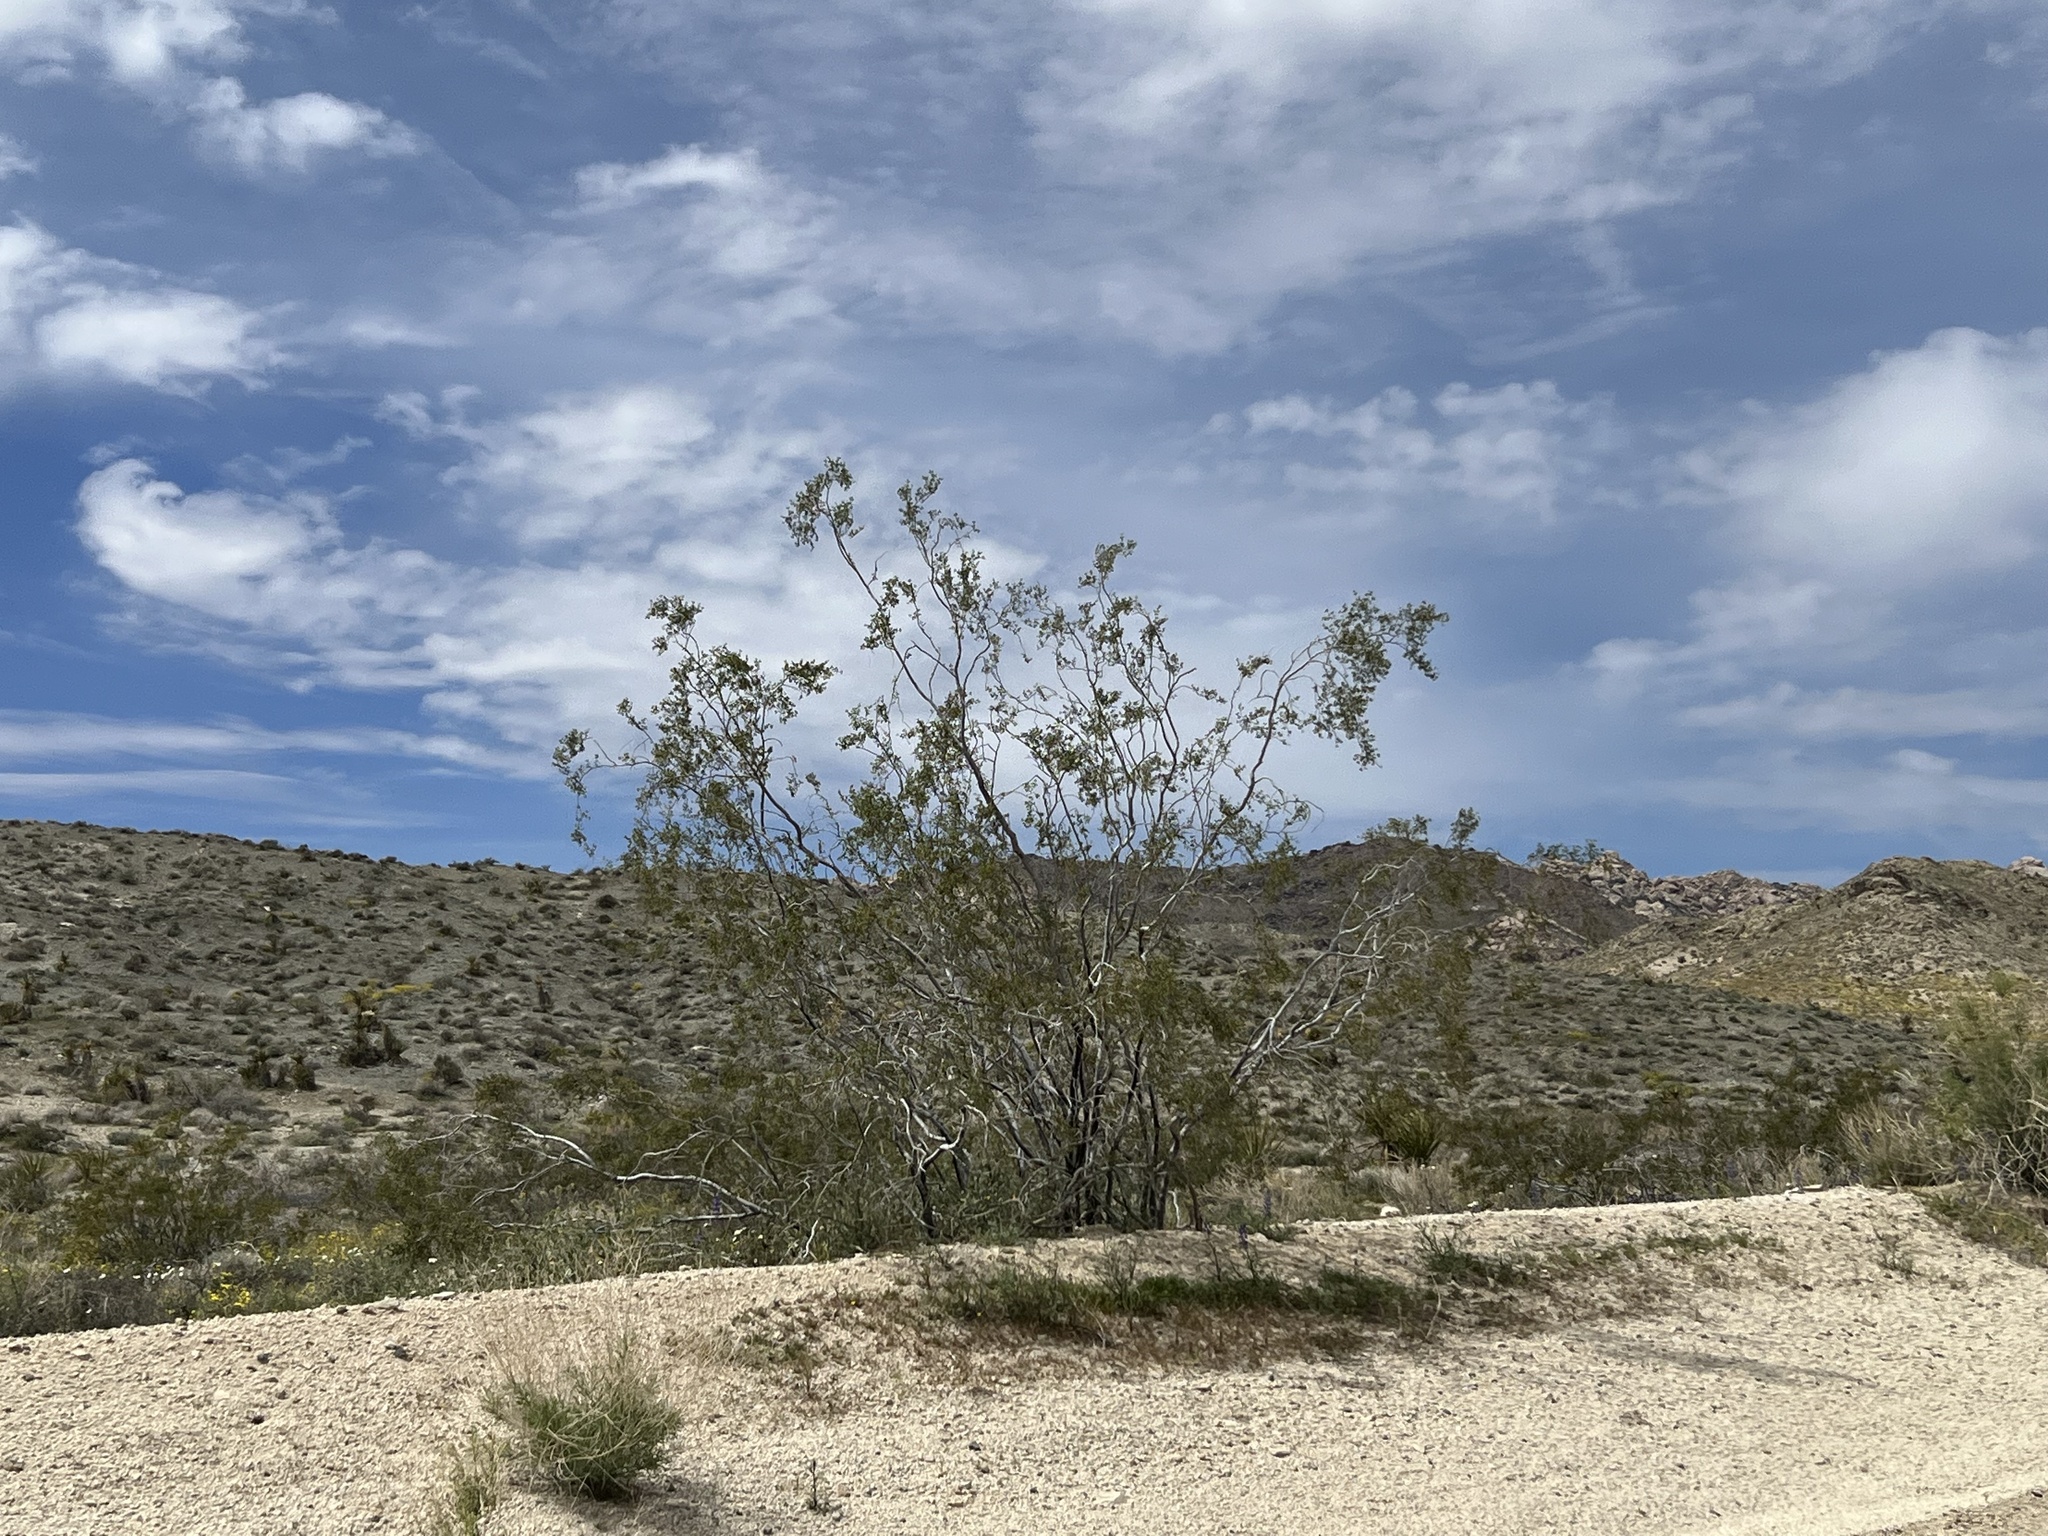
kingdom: Plantae
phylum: Tracheophyta
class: Magnoliopsida
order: Zygophyllales
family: Zygophyllaceae
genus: Larrea
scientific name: Larrea tridentata
